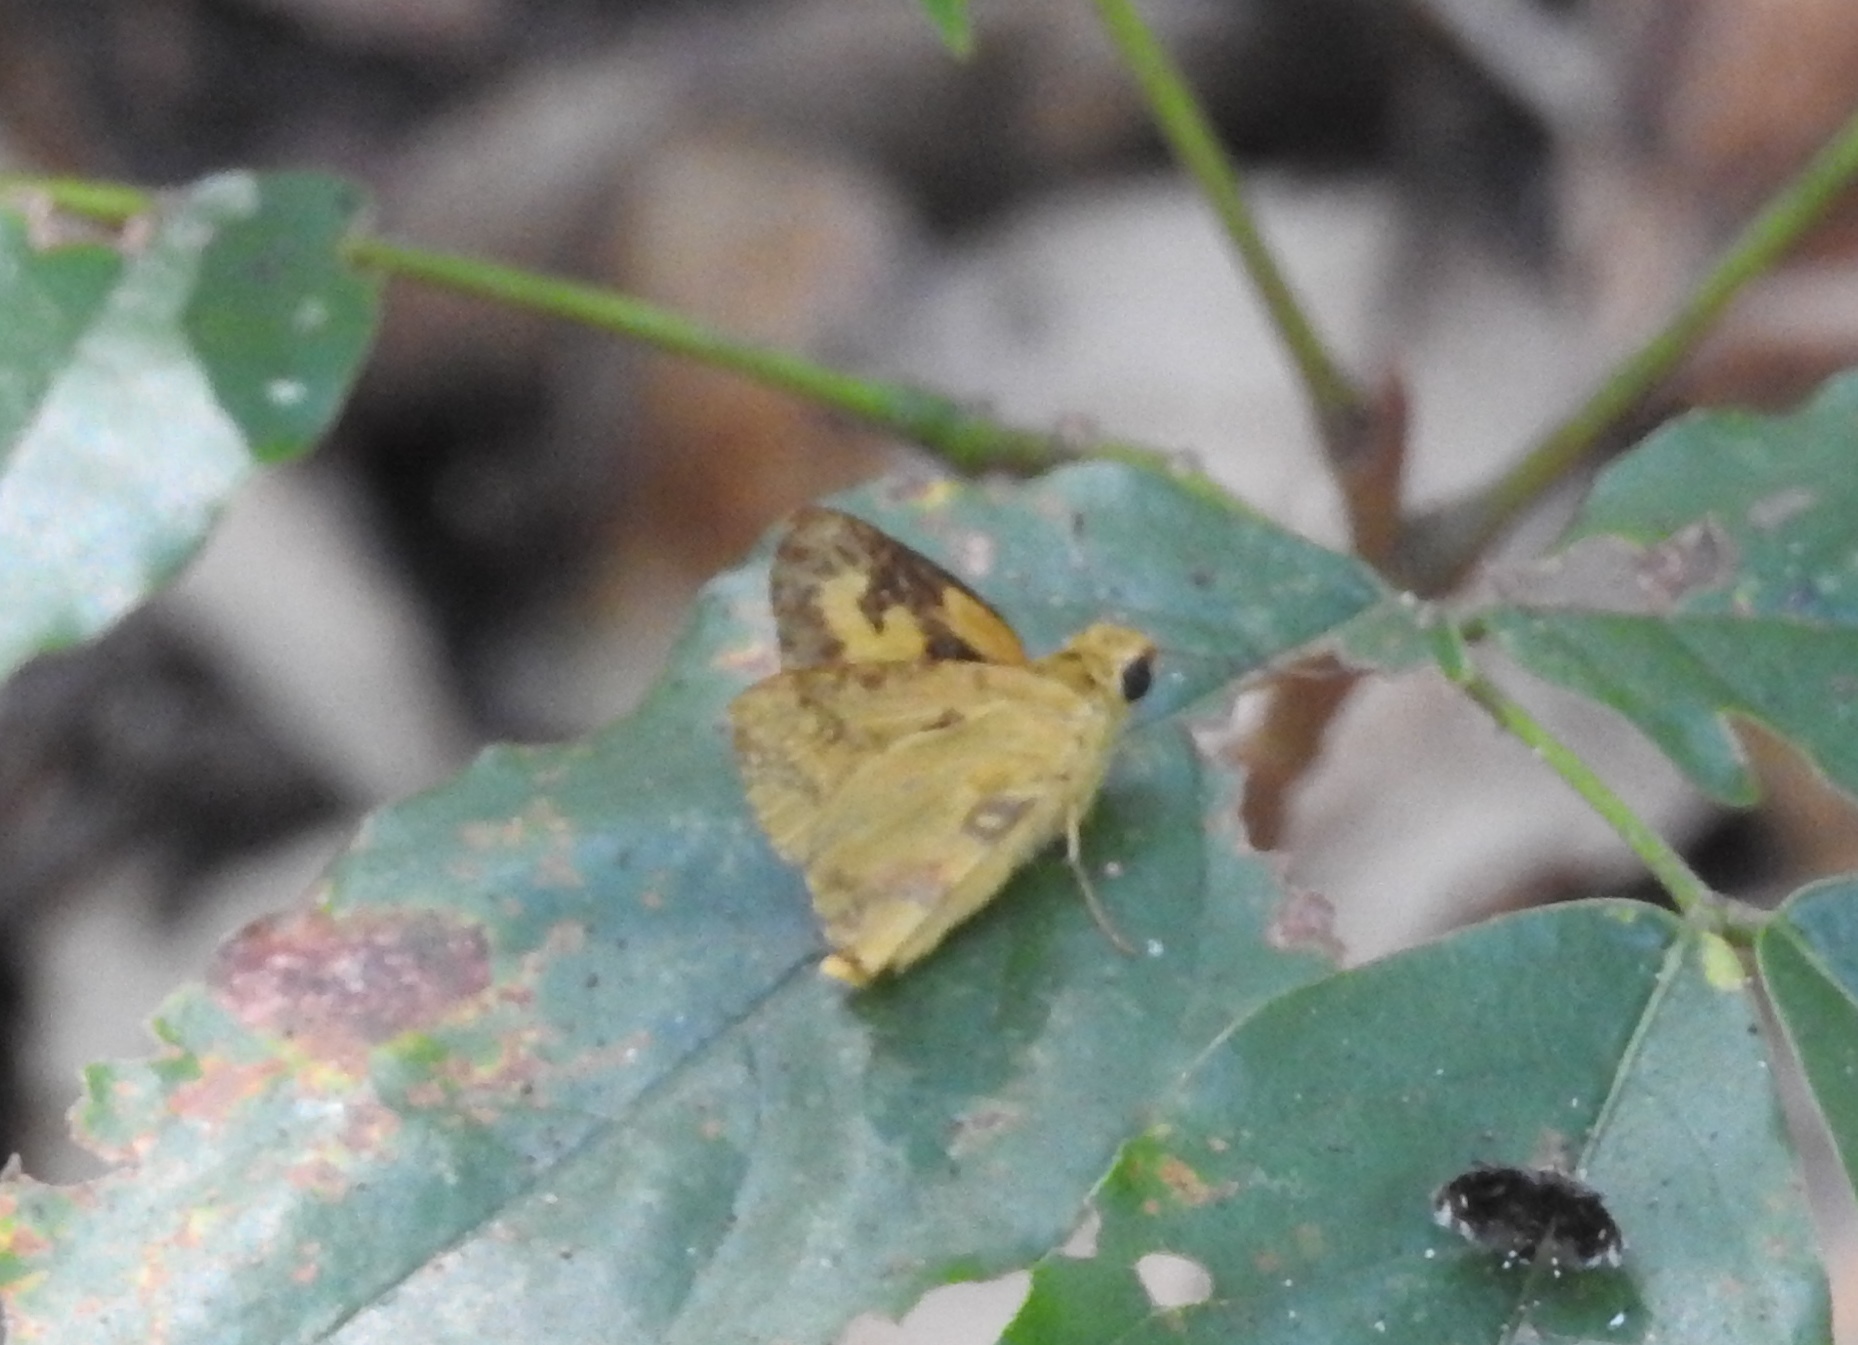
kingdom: Animalia
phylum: Arthropoda
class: Insecta
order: Lepidoptera
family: Hesperiidae
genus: Cupitha
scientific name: Cupitha purreea
